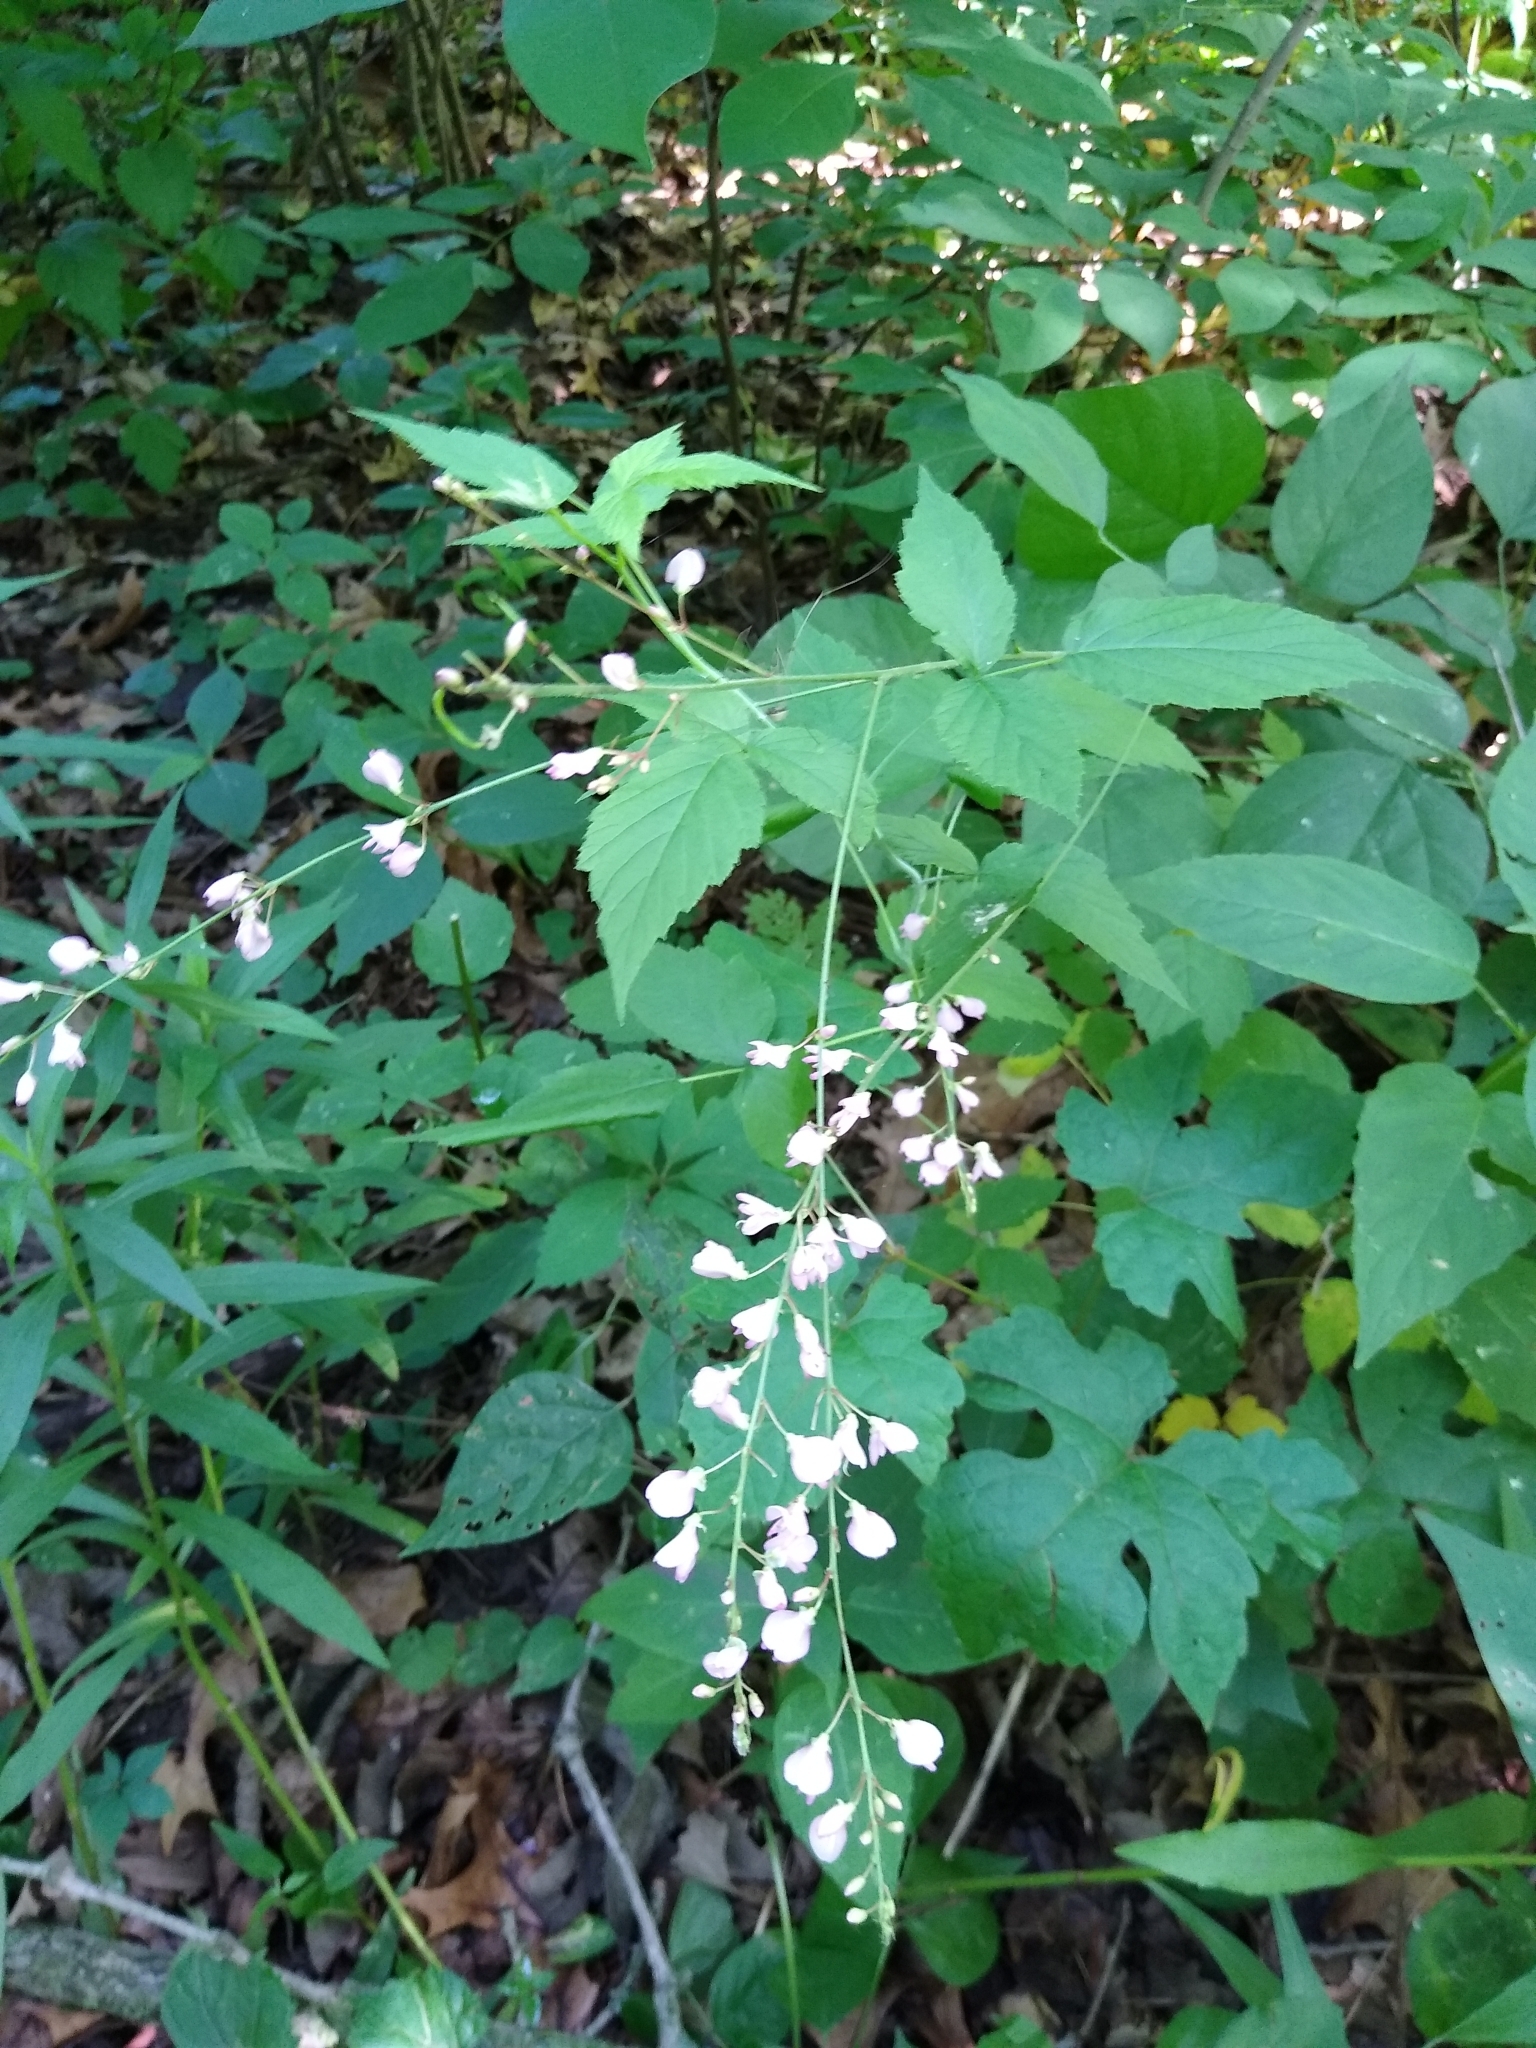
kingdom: Plantae
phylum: Tracheophyta
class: Magnoliopsida
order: Fabales
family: Fabaceae
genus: Hylodesmum
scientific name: Hylodesmum glutinosum
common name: Clustered-leaved tick-trefoil
